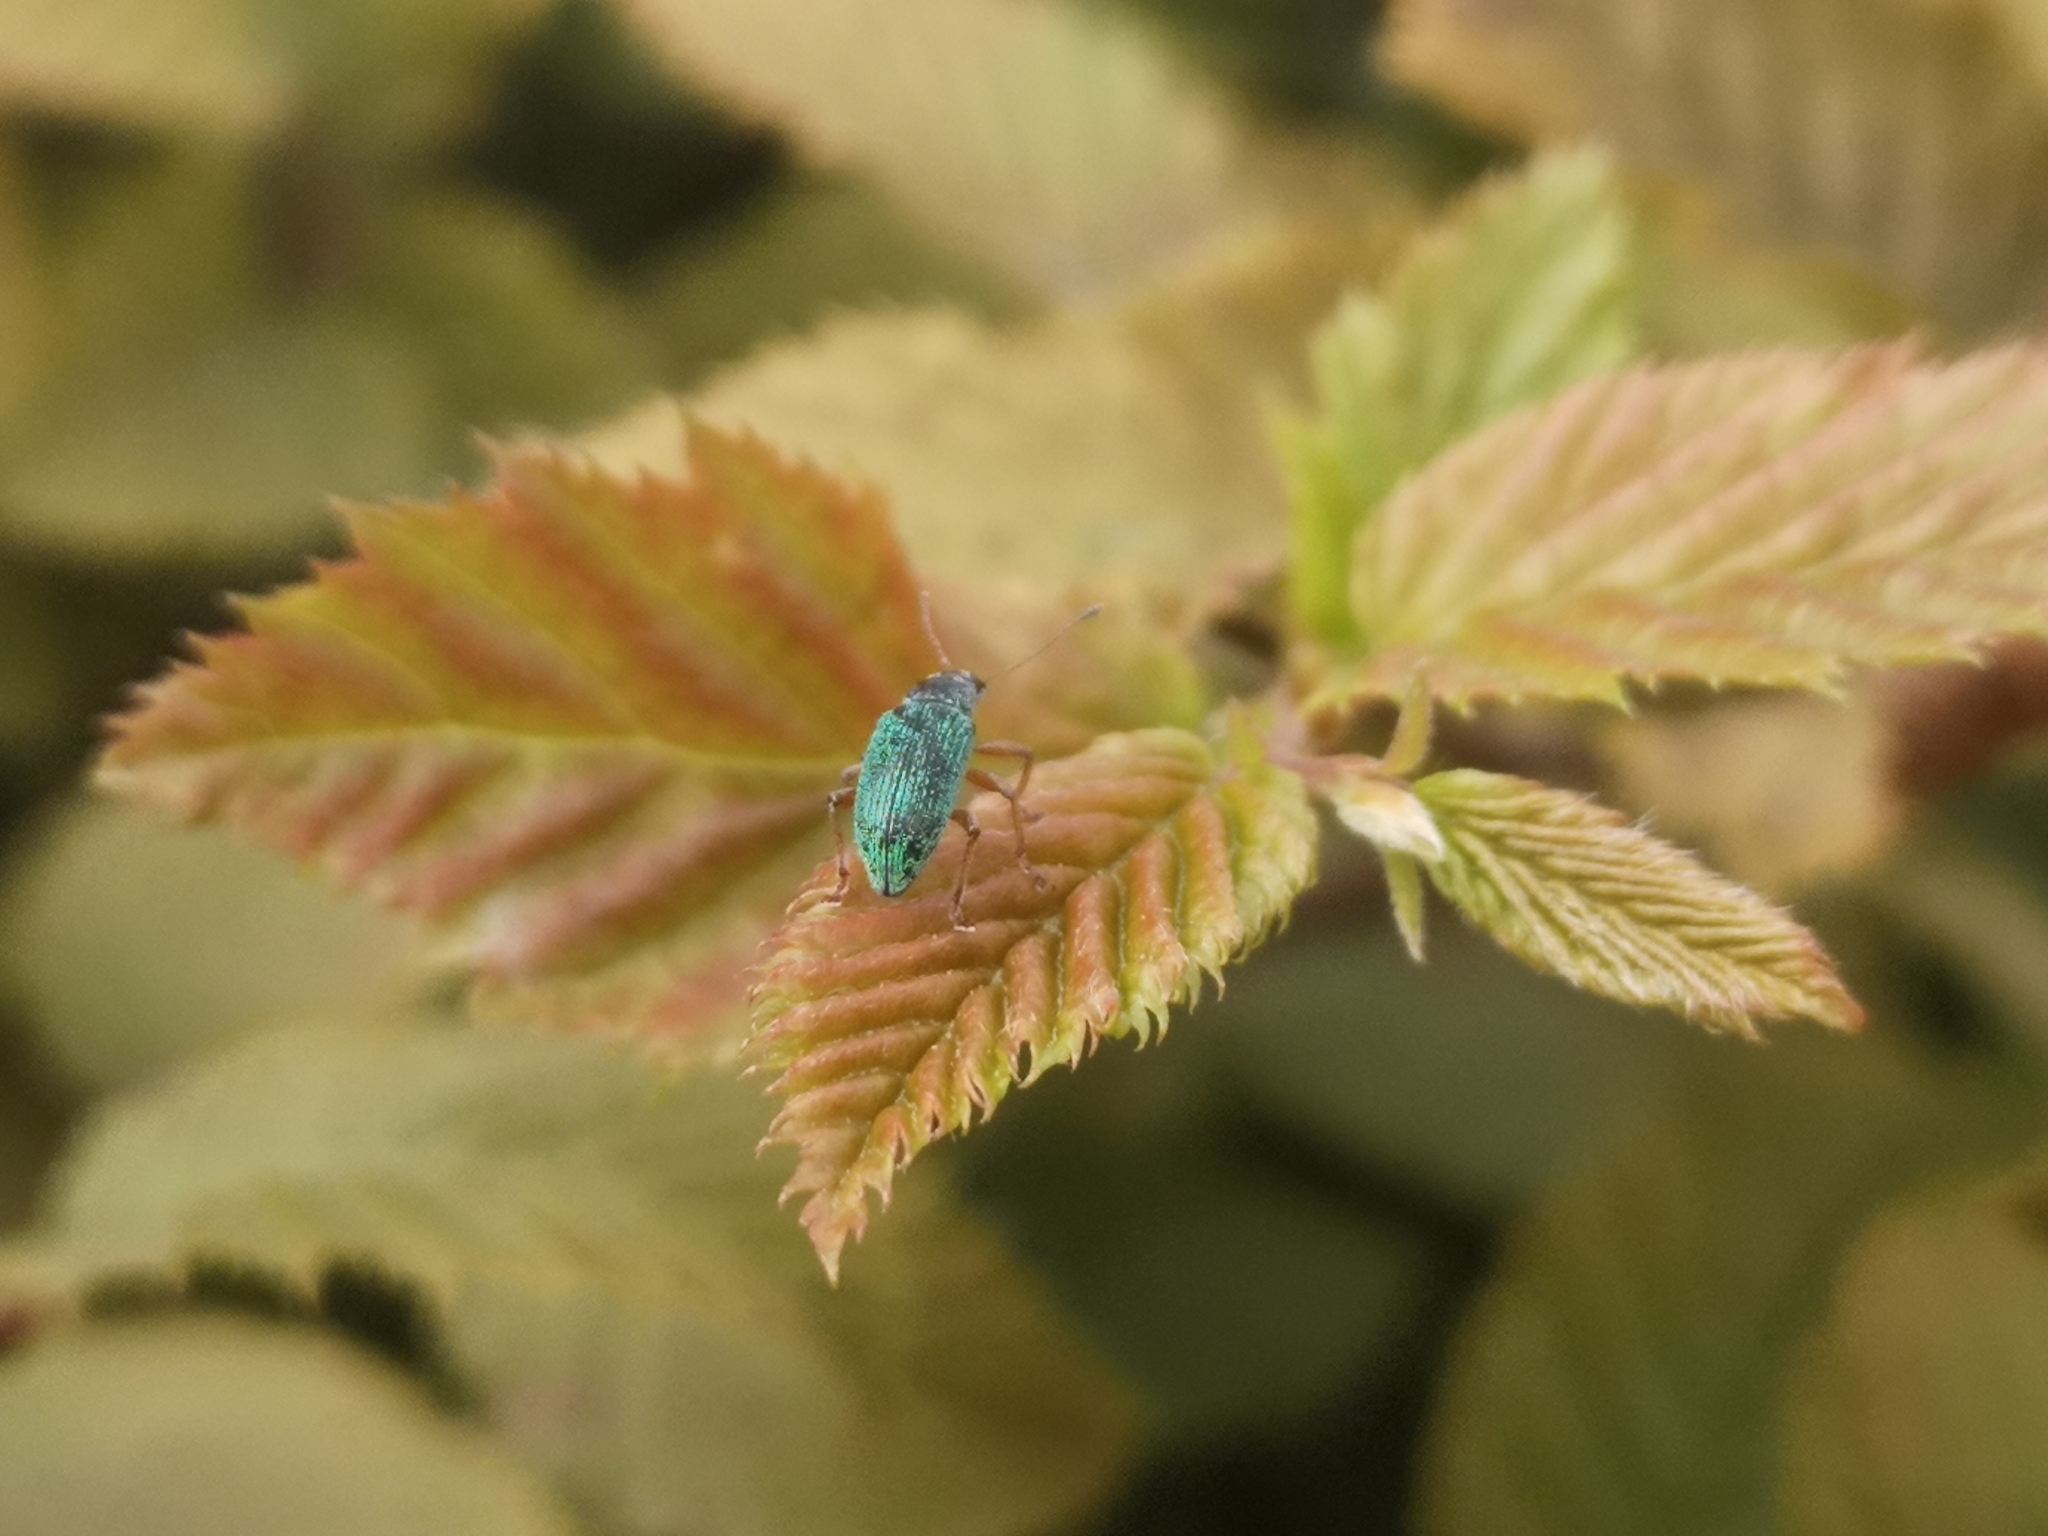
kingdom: Animalia
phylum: Arthropoda
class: Insecta
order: Coleoptera
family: Curculionidae
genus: Polydrusus
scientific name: Polydrusus formosus
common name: Weevil
